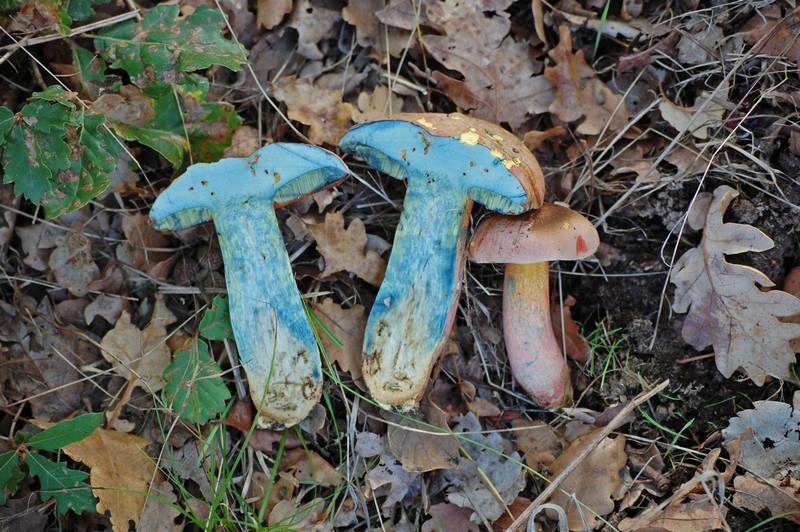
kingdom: Fungi
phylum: Basidiomycota
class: Agaricomycetes
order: Boletales
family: Boletaceae
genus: Rubroboletus
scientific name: Rubroboletus legaliae
